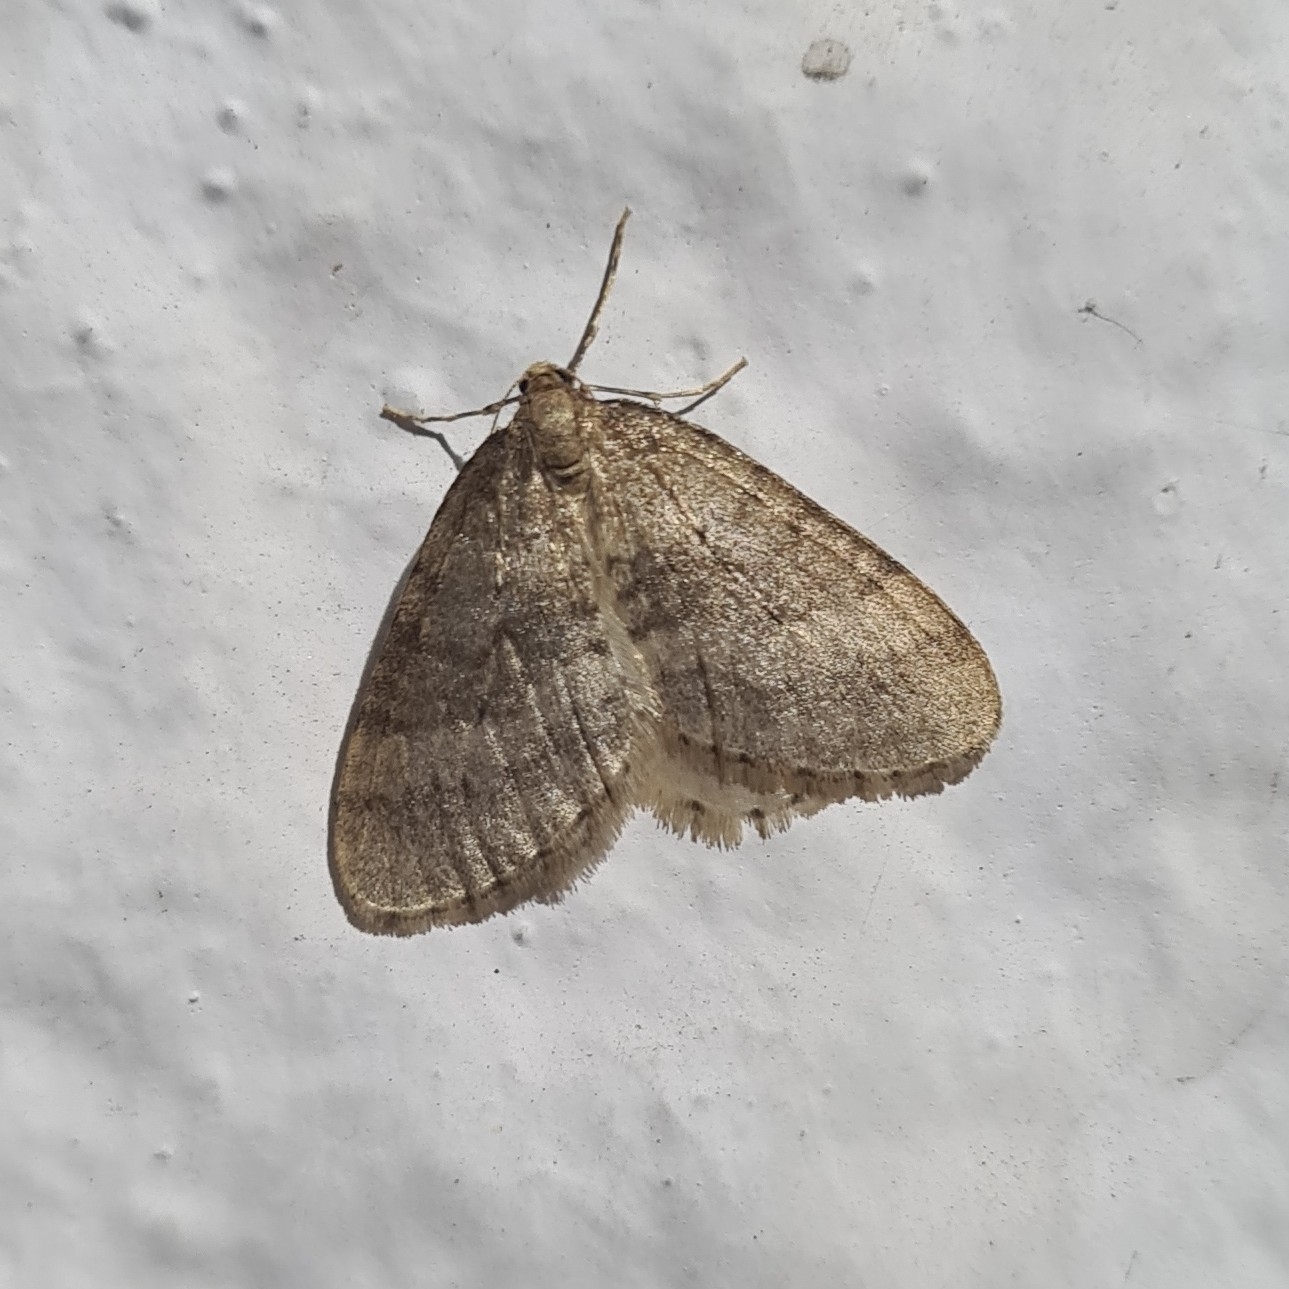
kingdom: Animalia
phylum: Arthropoda
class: Insecta
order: Lepidoptera
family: Geometridae
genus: Operophtera
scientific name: Operophtera brumata
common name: Winter moth
